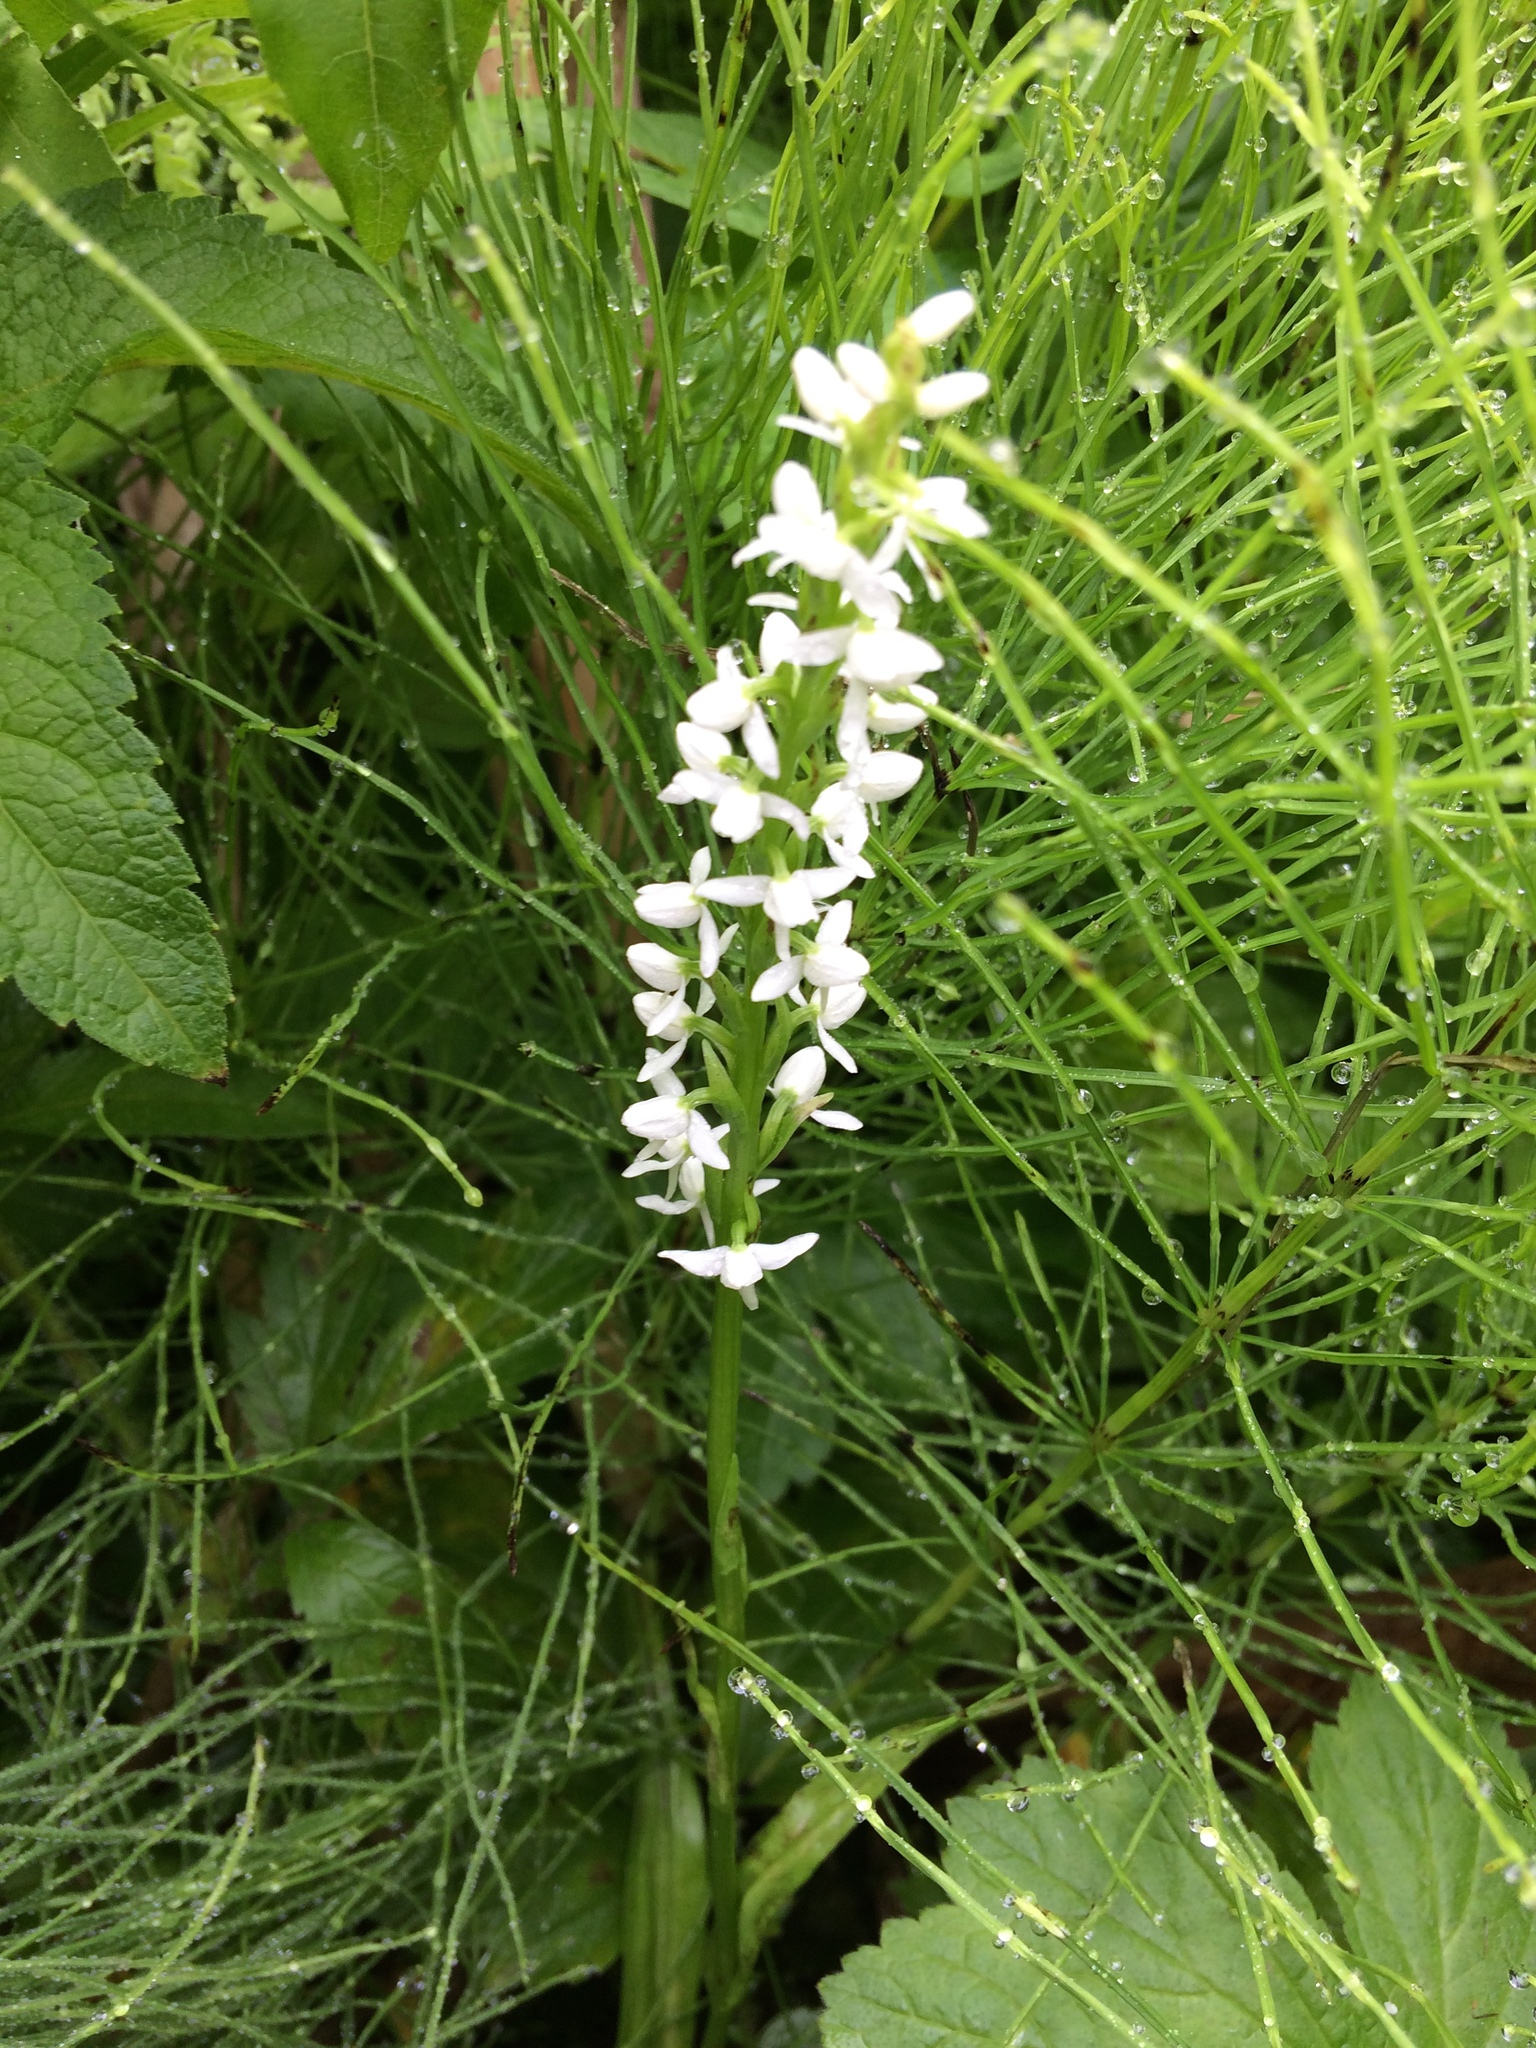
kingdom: Plantae
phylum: Tracheophyta
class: Liliopsida
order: Asparagales
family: Orchidaceae
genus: Platanthera
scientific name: Platanthera dilatata
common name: Bog candles
